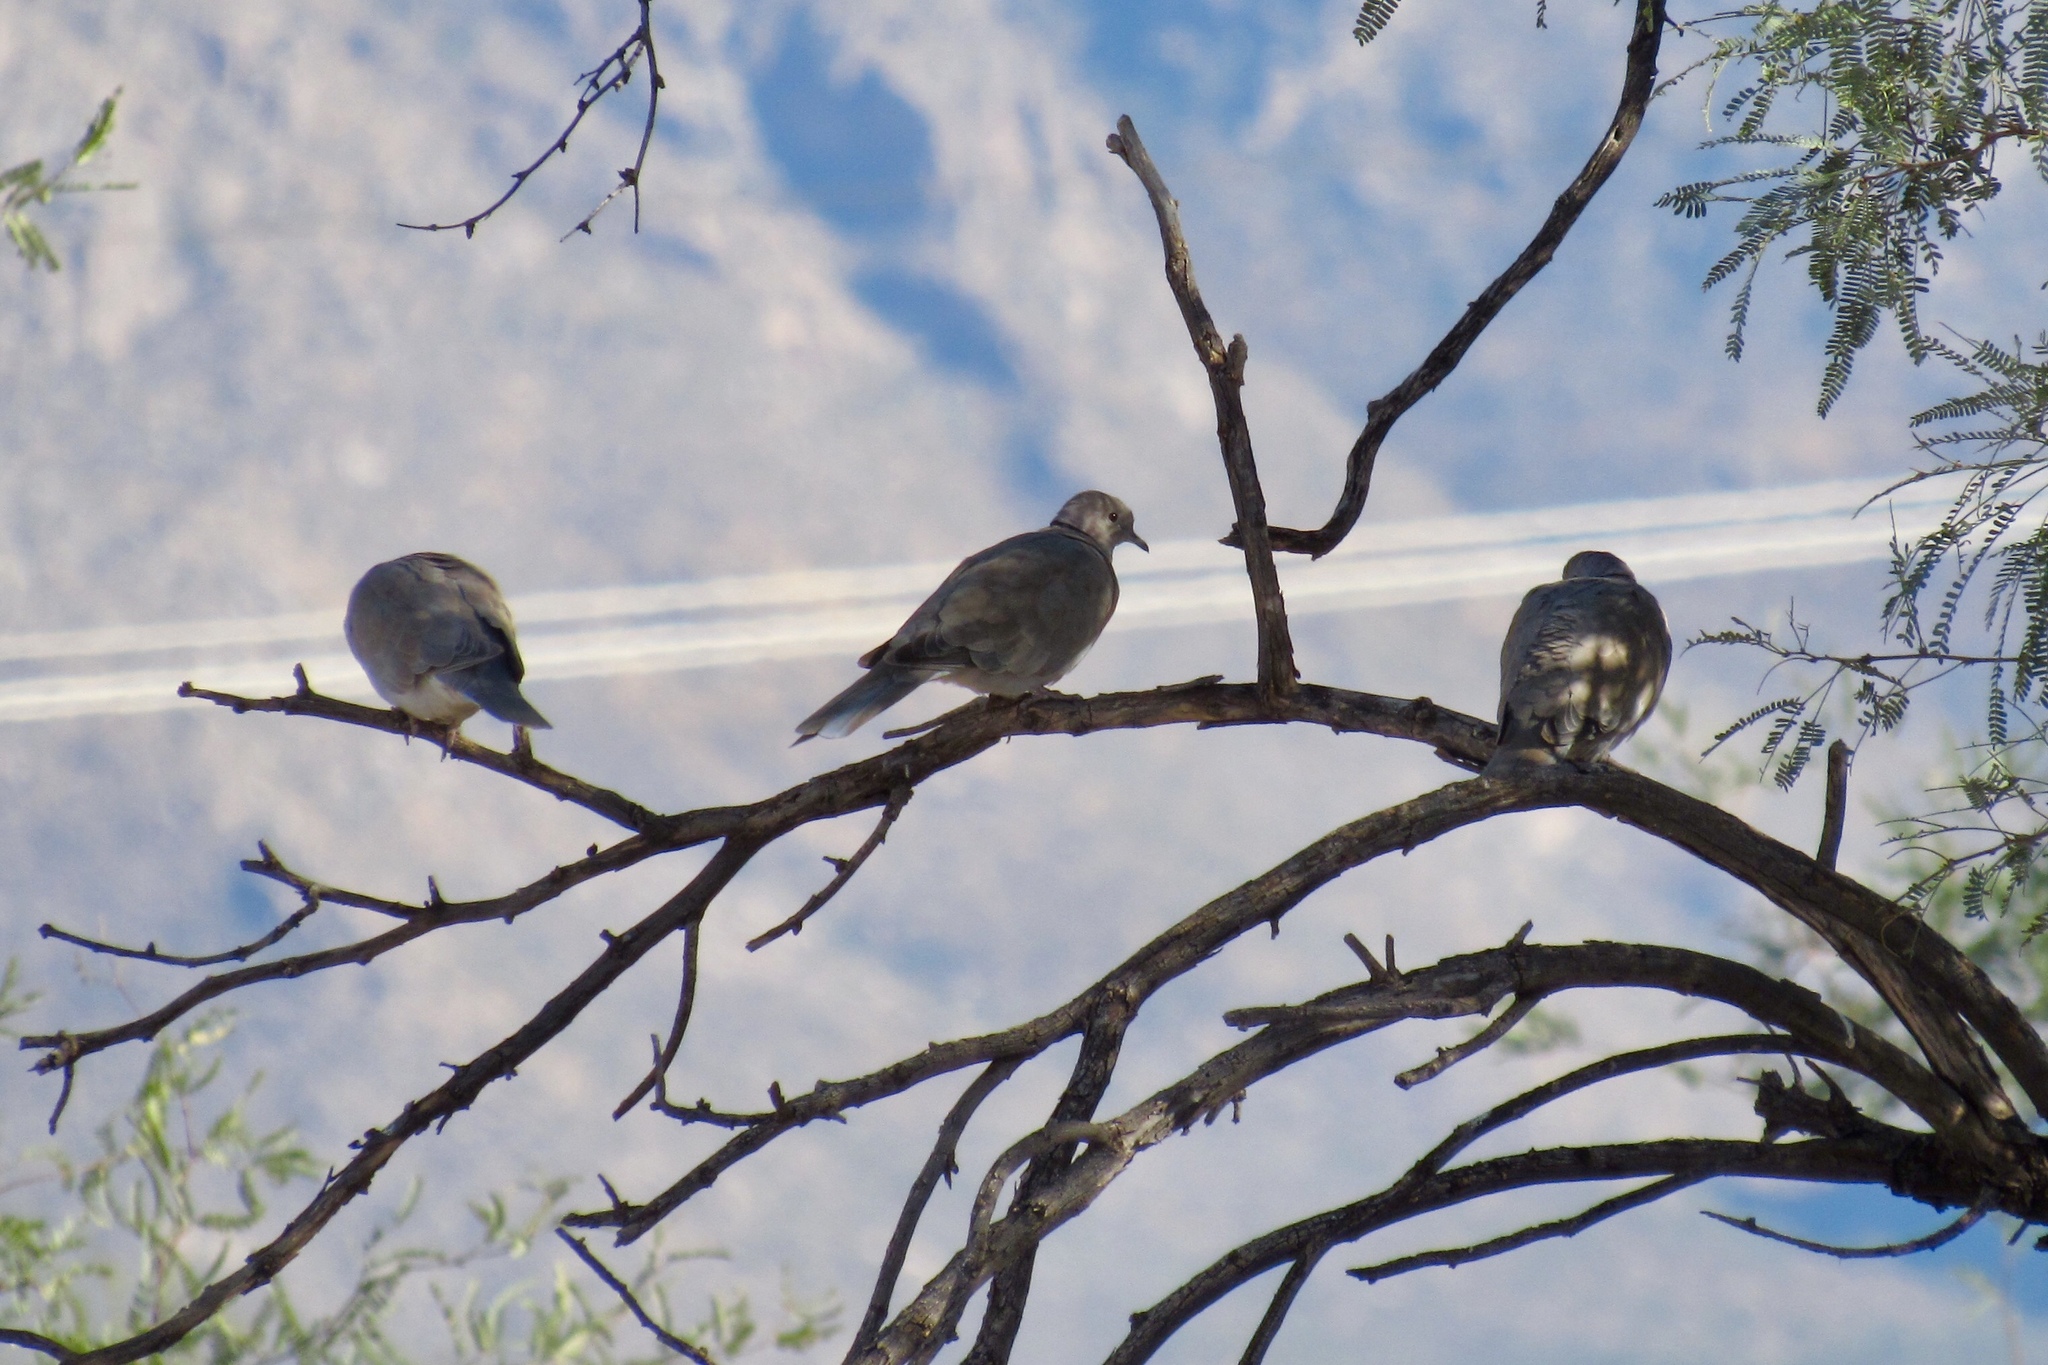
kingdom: Animalia
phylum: Chordata
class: Aves
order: Columbiformes
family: Columbidae
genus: Streptopelia
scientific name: Streptopelia decaocto
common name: Eurasian collared dove
